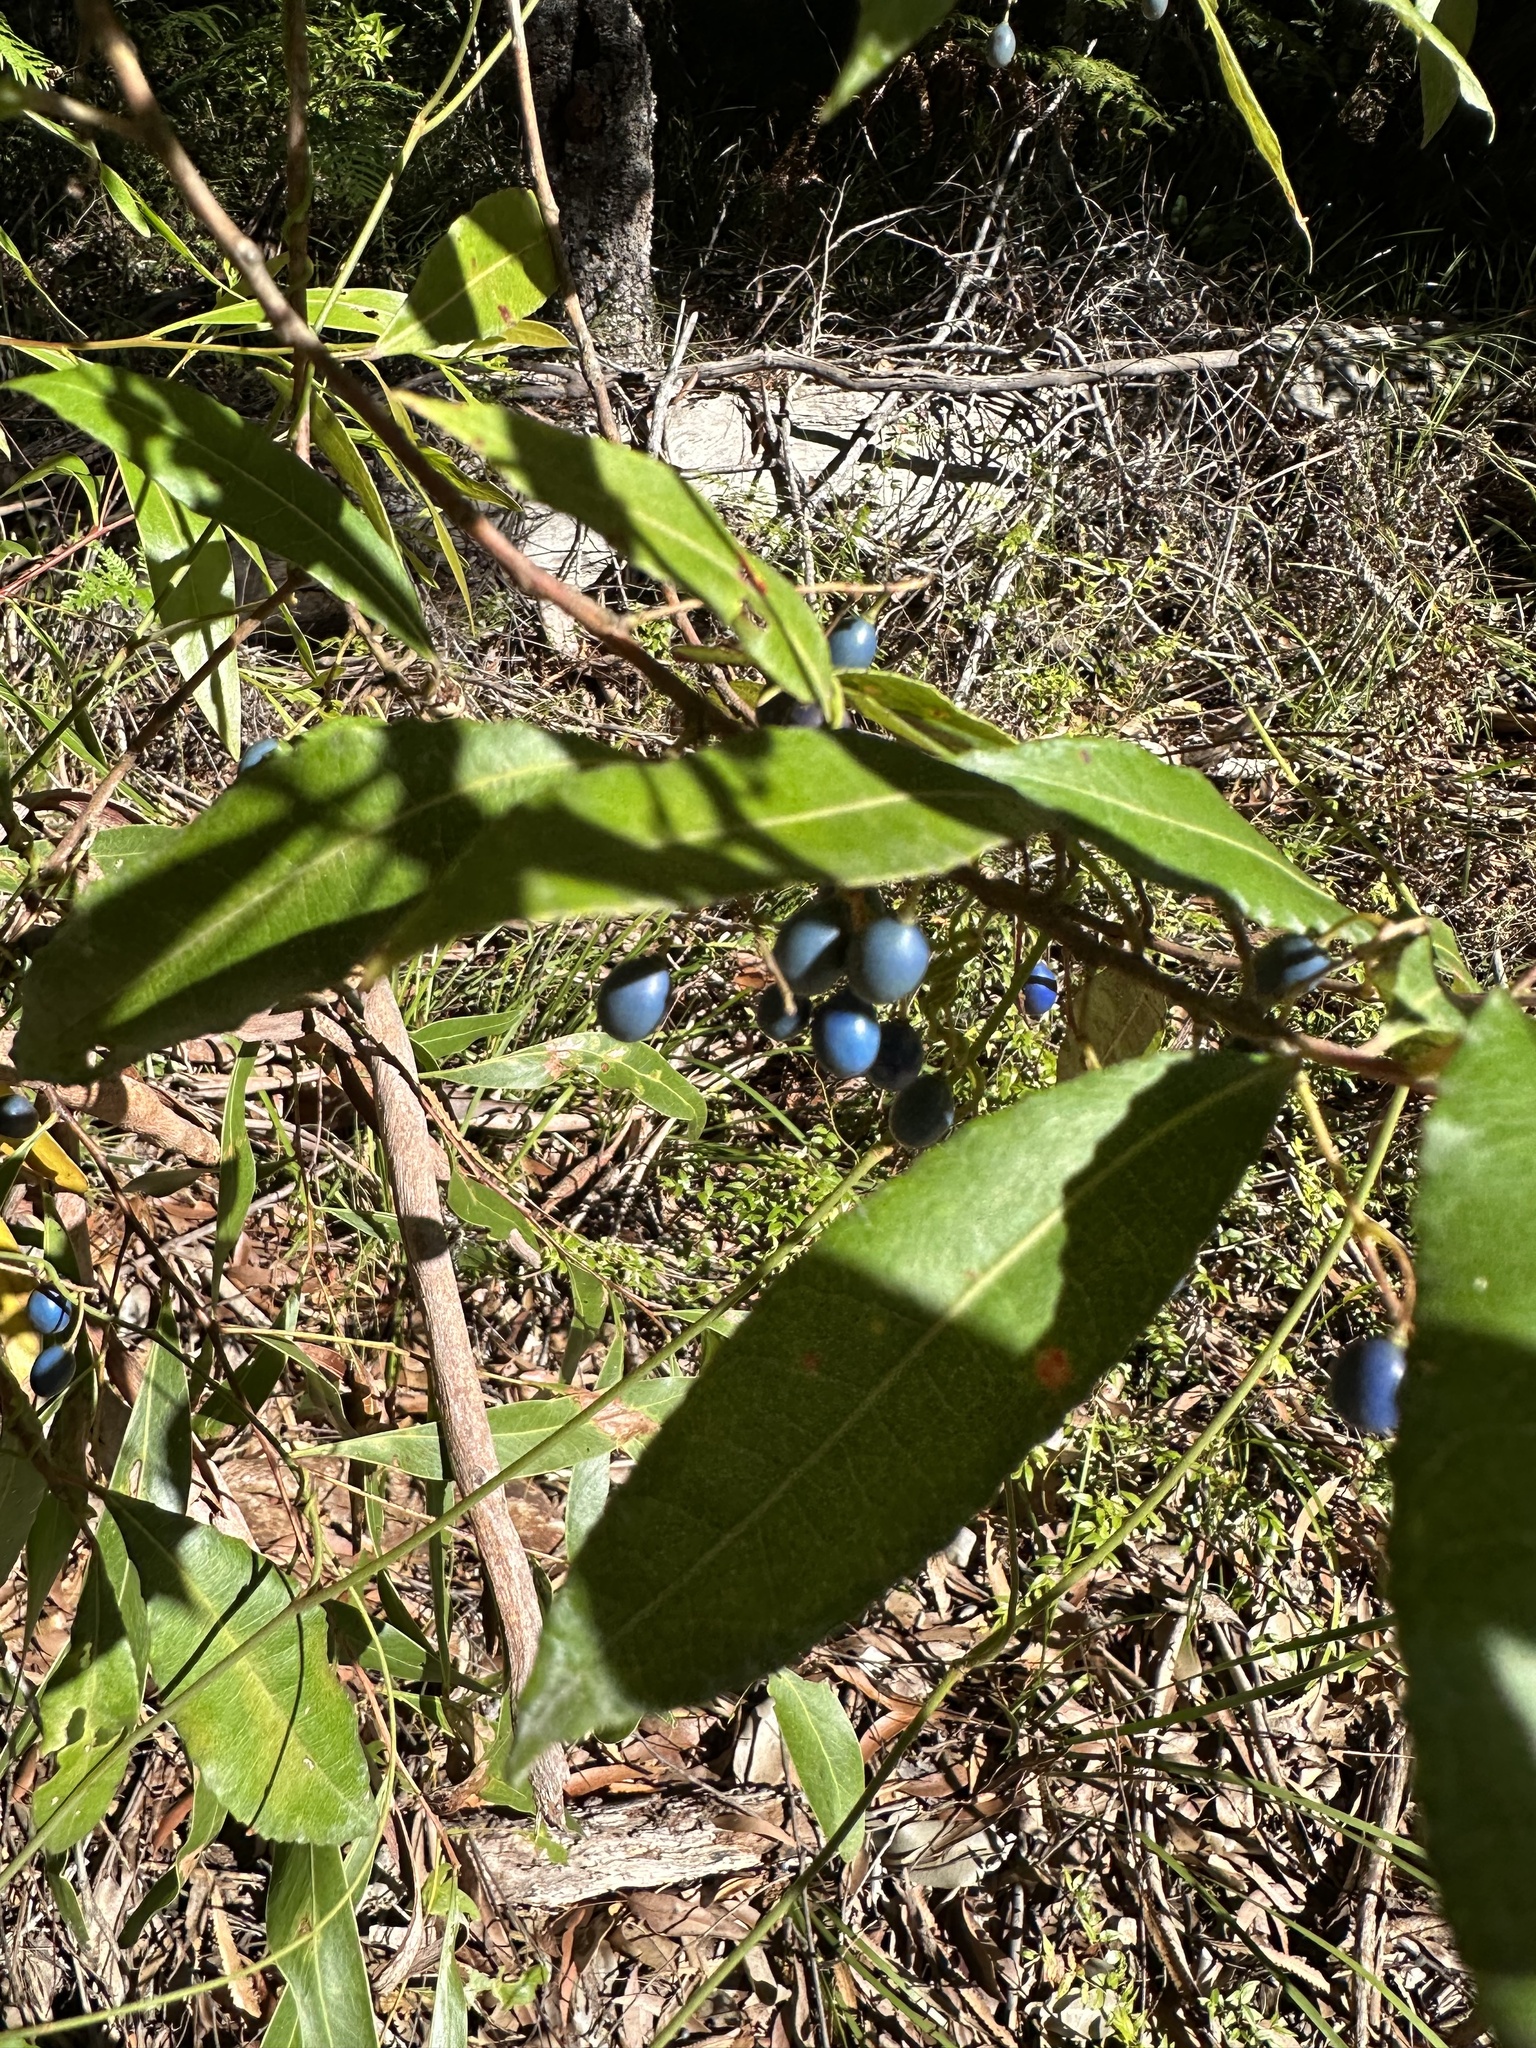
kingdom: Plantae
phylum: Tracheophyta
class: Magnoliopsida
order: Oxalidales
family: Elaeocarpaceae
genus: Elaeocarpus
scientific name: Elaeocarpus reticulatus
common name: Ash quandong
